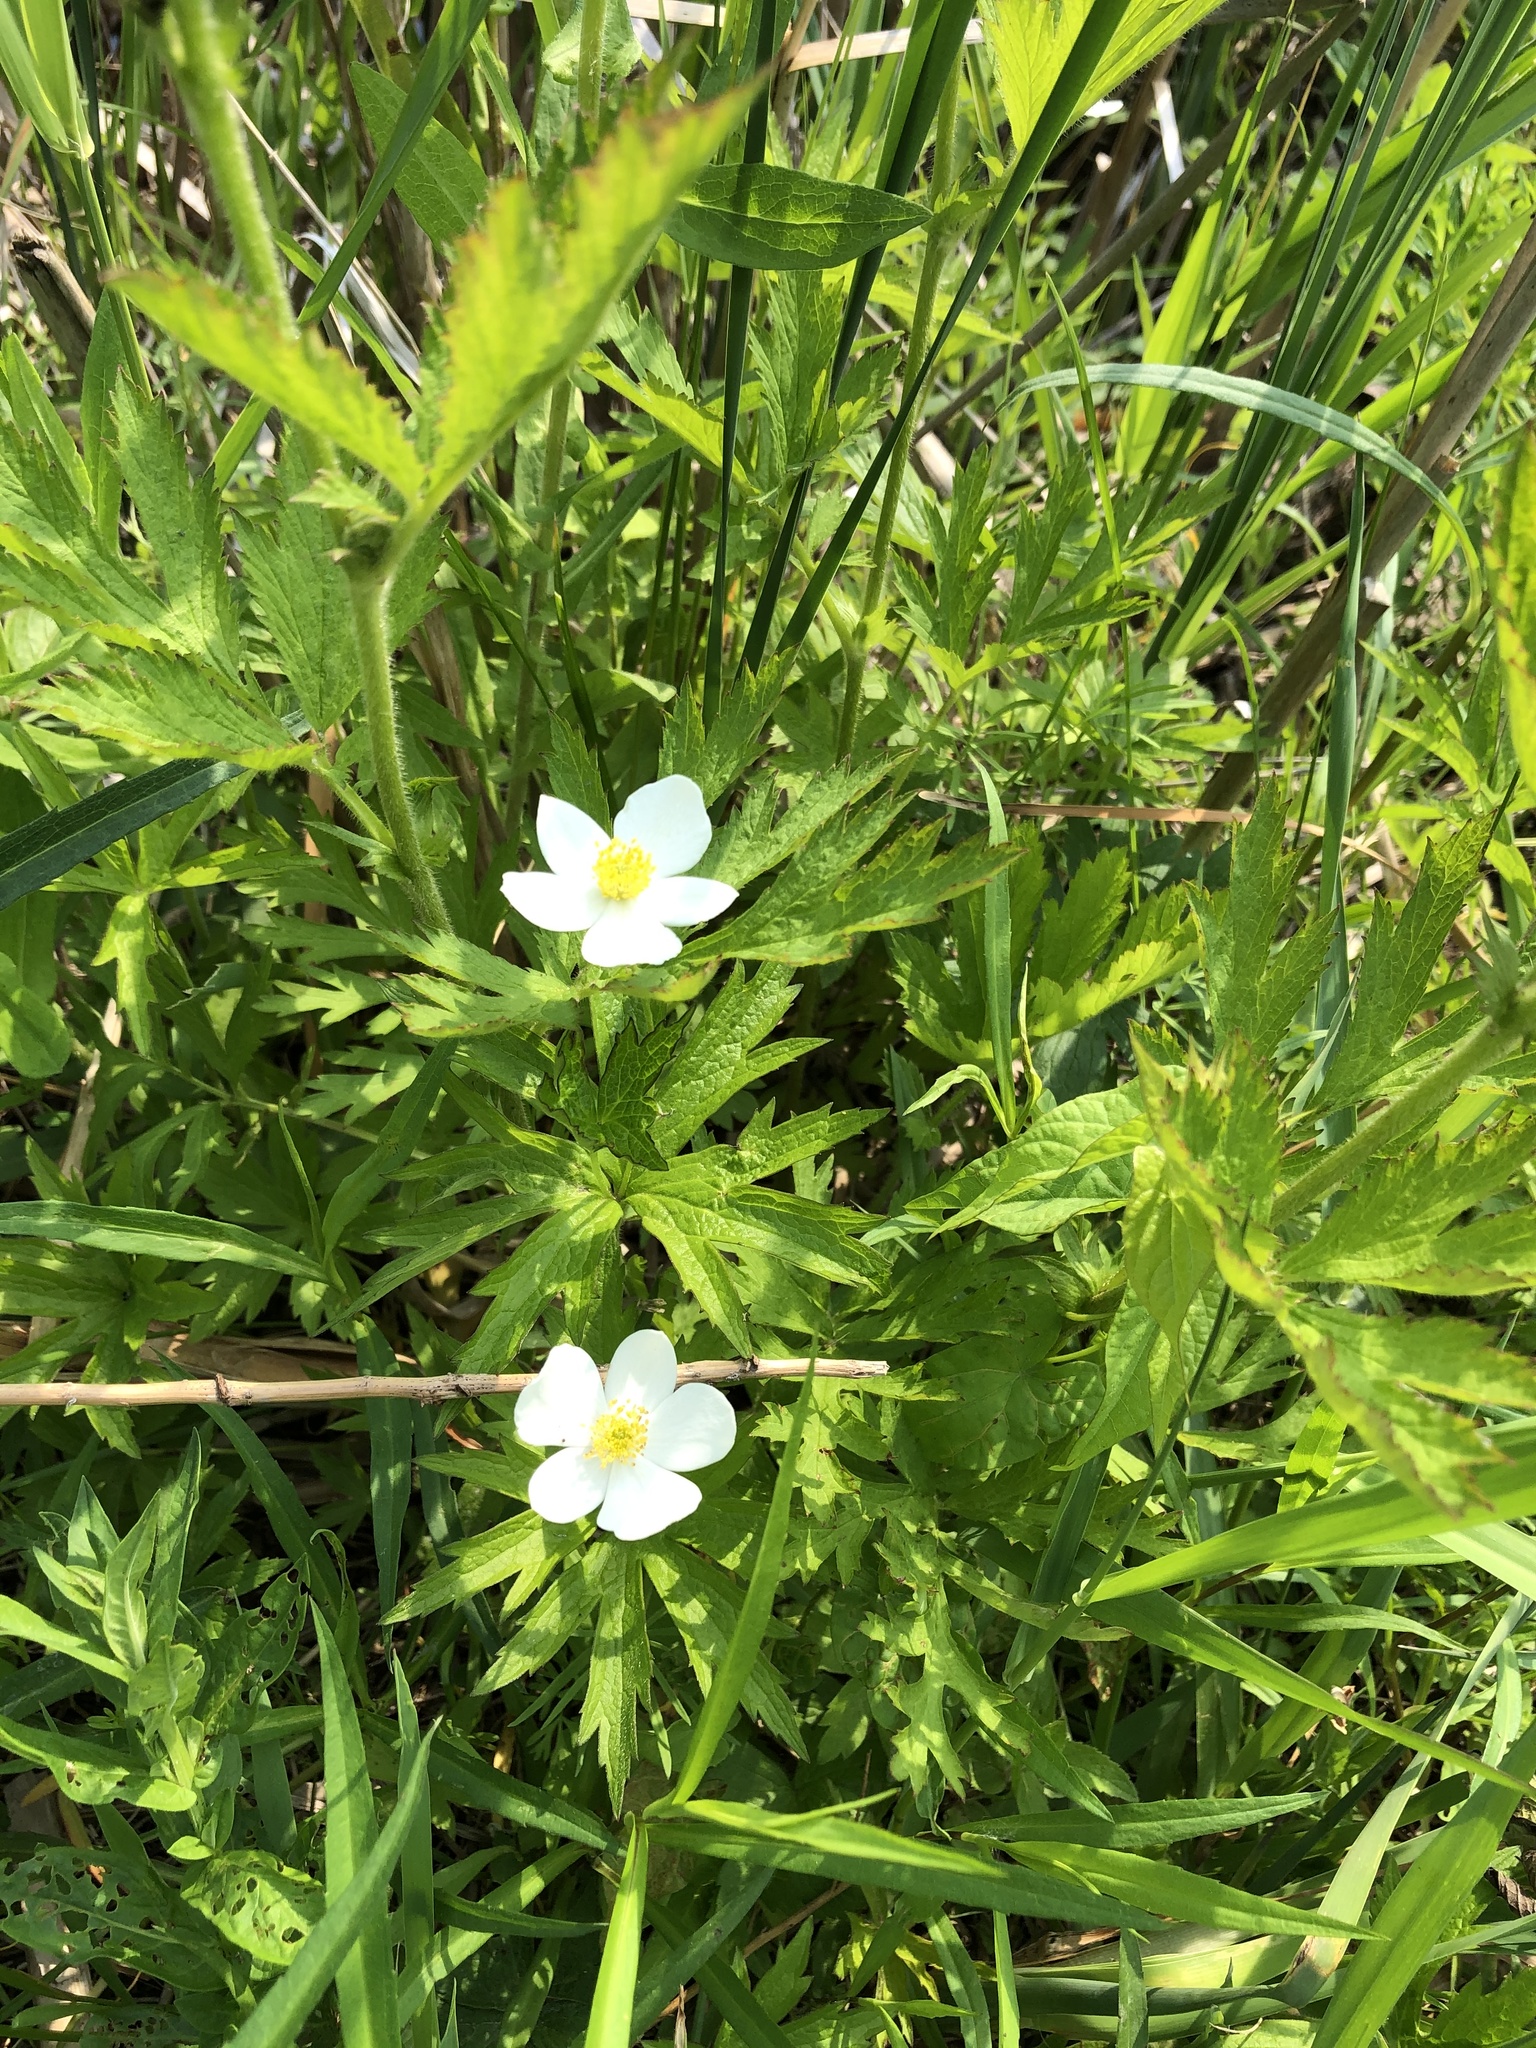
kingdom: Plantae
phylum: Tracheophyta
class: Magnoliopsida
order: Ranunculales
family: Ranunculaceae
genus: Anemonastrum
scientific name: Anemonastrum canadense
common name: Canada anemone
